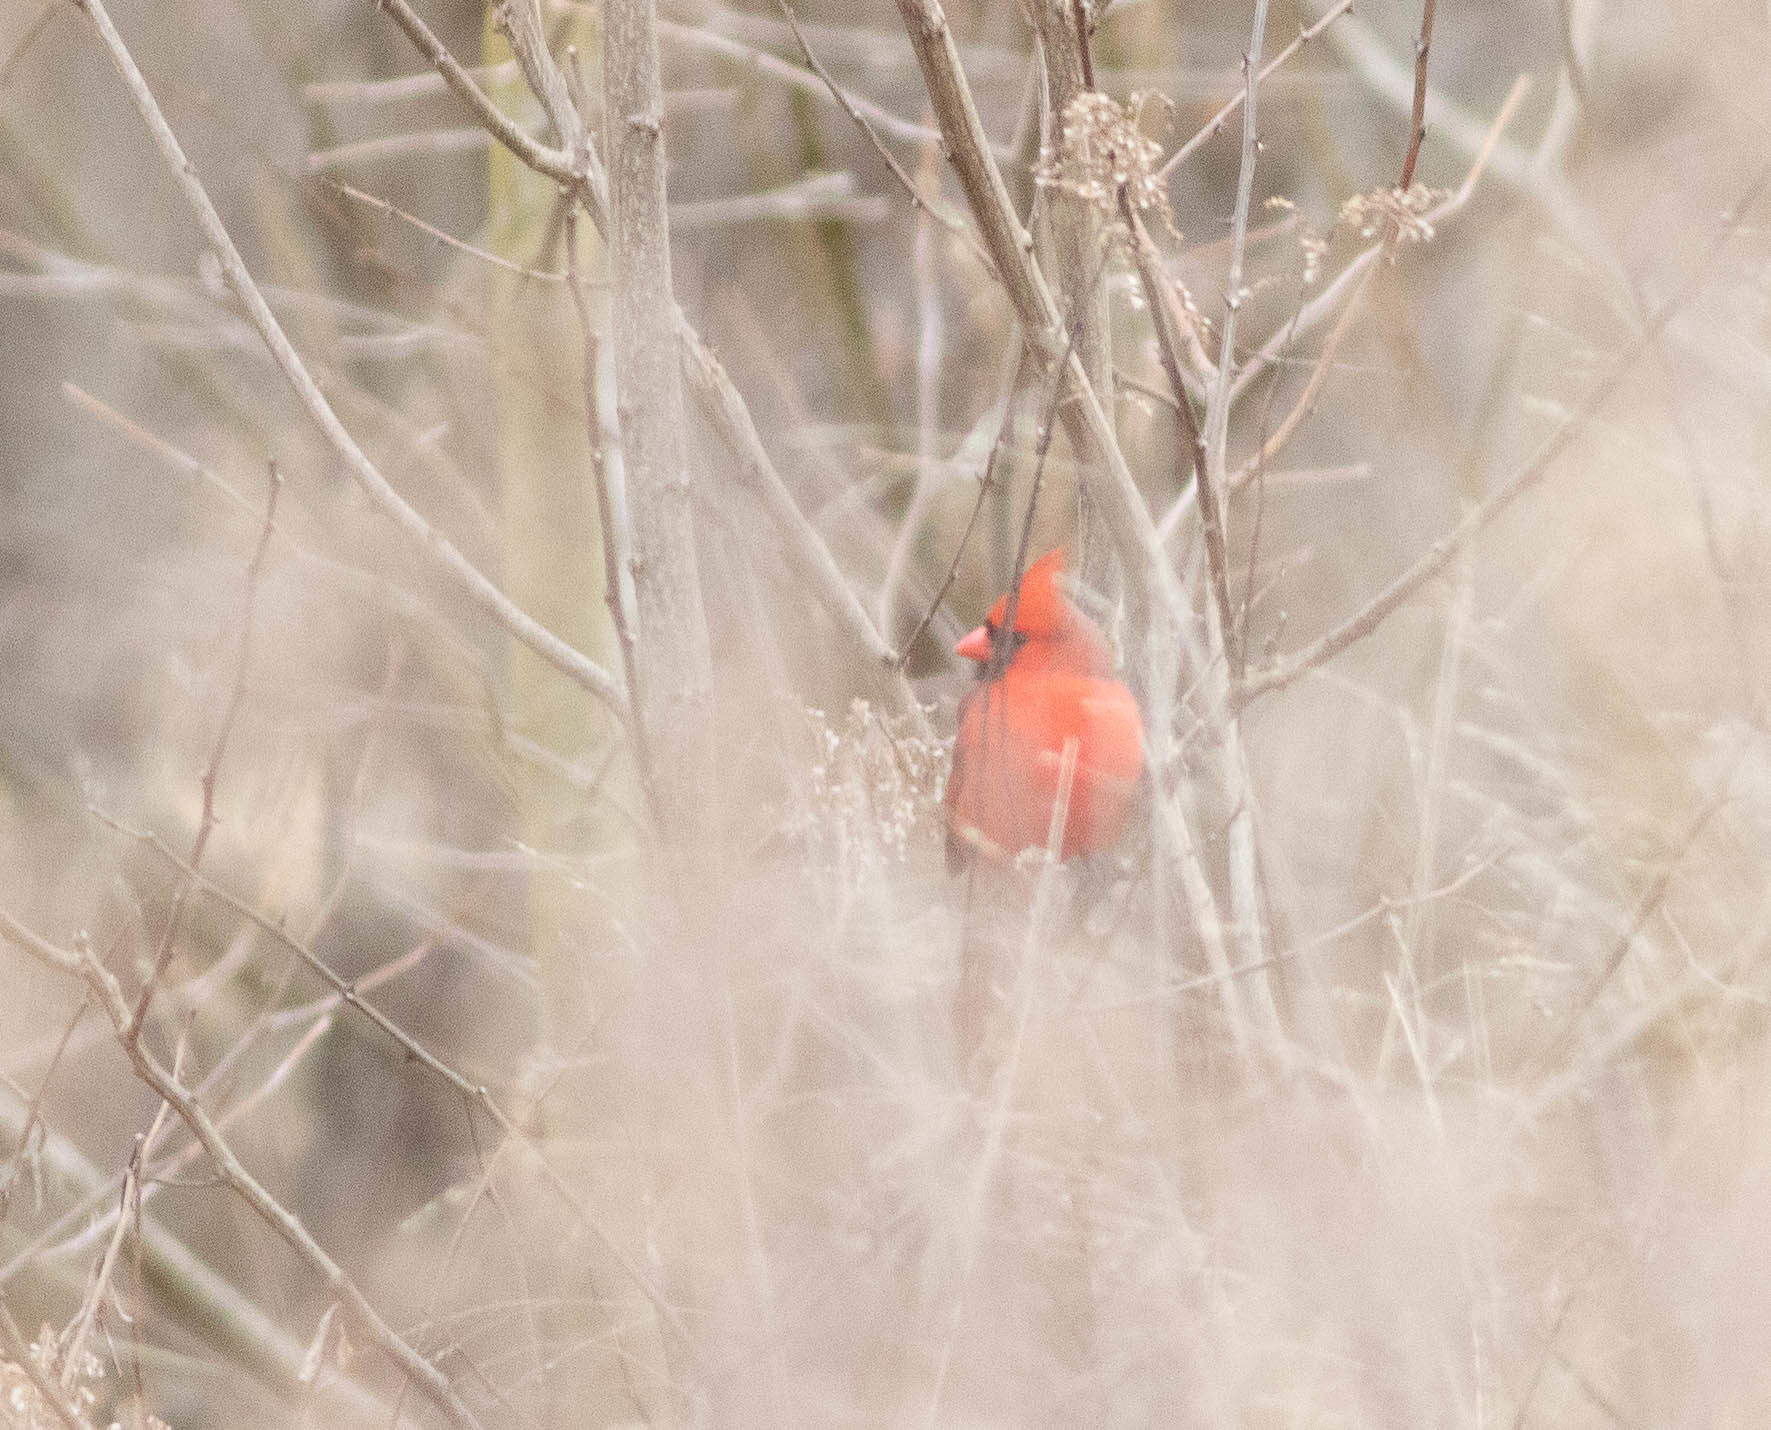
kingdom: Animalia
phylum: Chordata
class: Aves
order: Passeriformes
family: Cardinalidae
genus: Cardinalis
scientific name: Cardinalis cardinalis
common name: Northern cardinal
